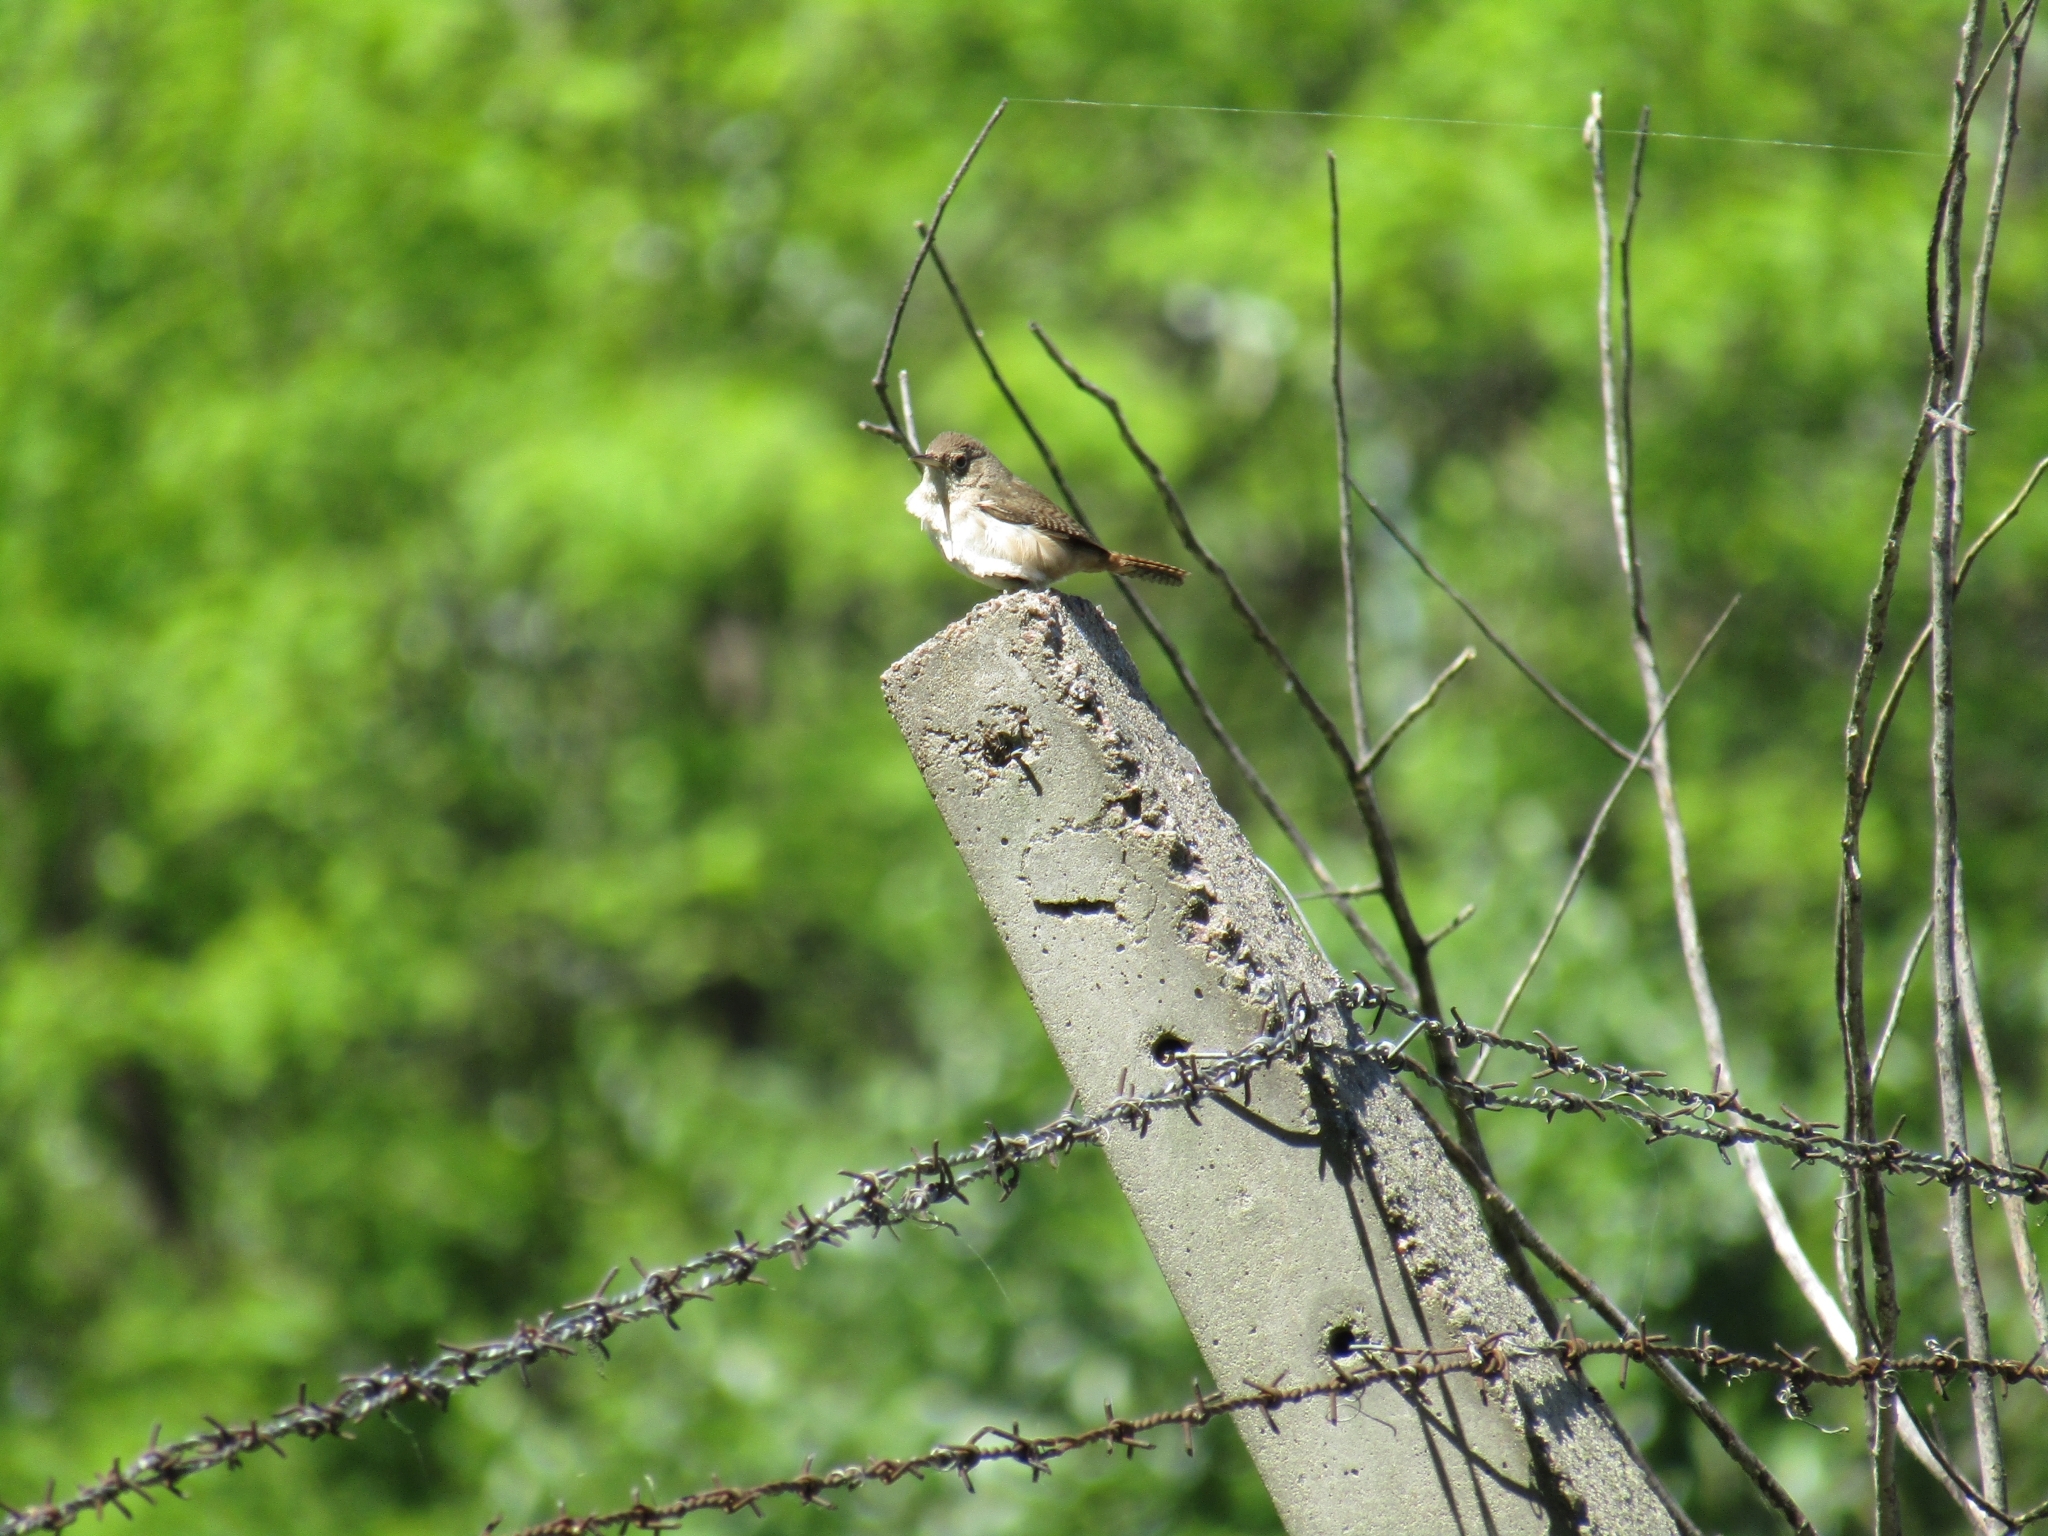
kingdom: Animalia
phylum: Chordata
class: Aves
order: Passeriformes
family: Troglodytidae
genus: Troglodytes
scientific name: Troglodytes aedon
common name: House wren
